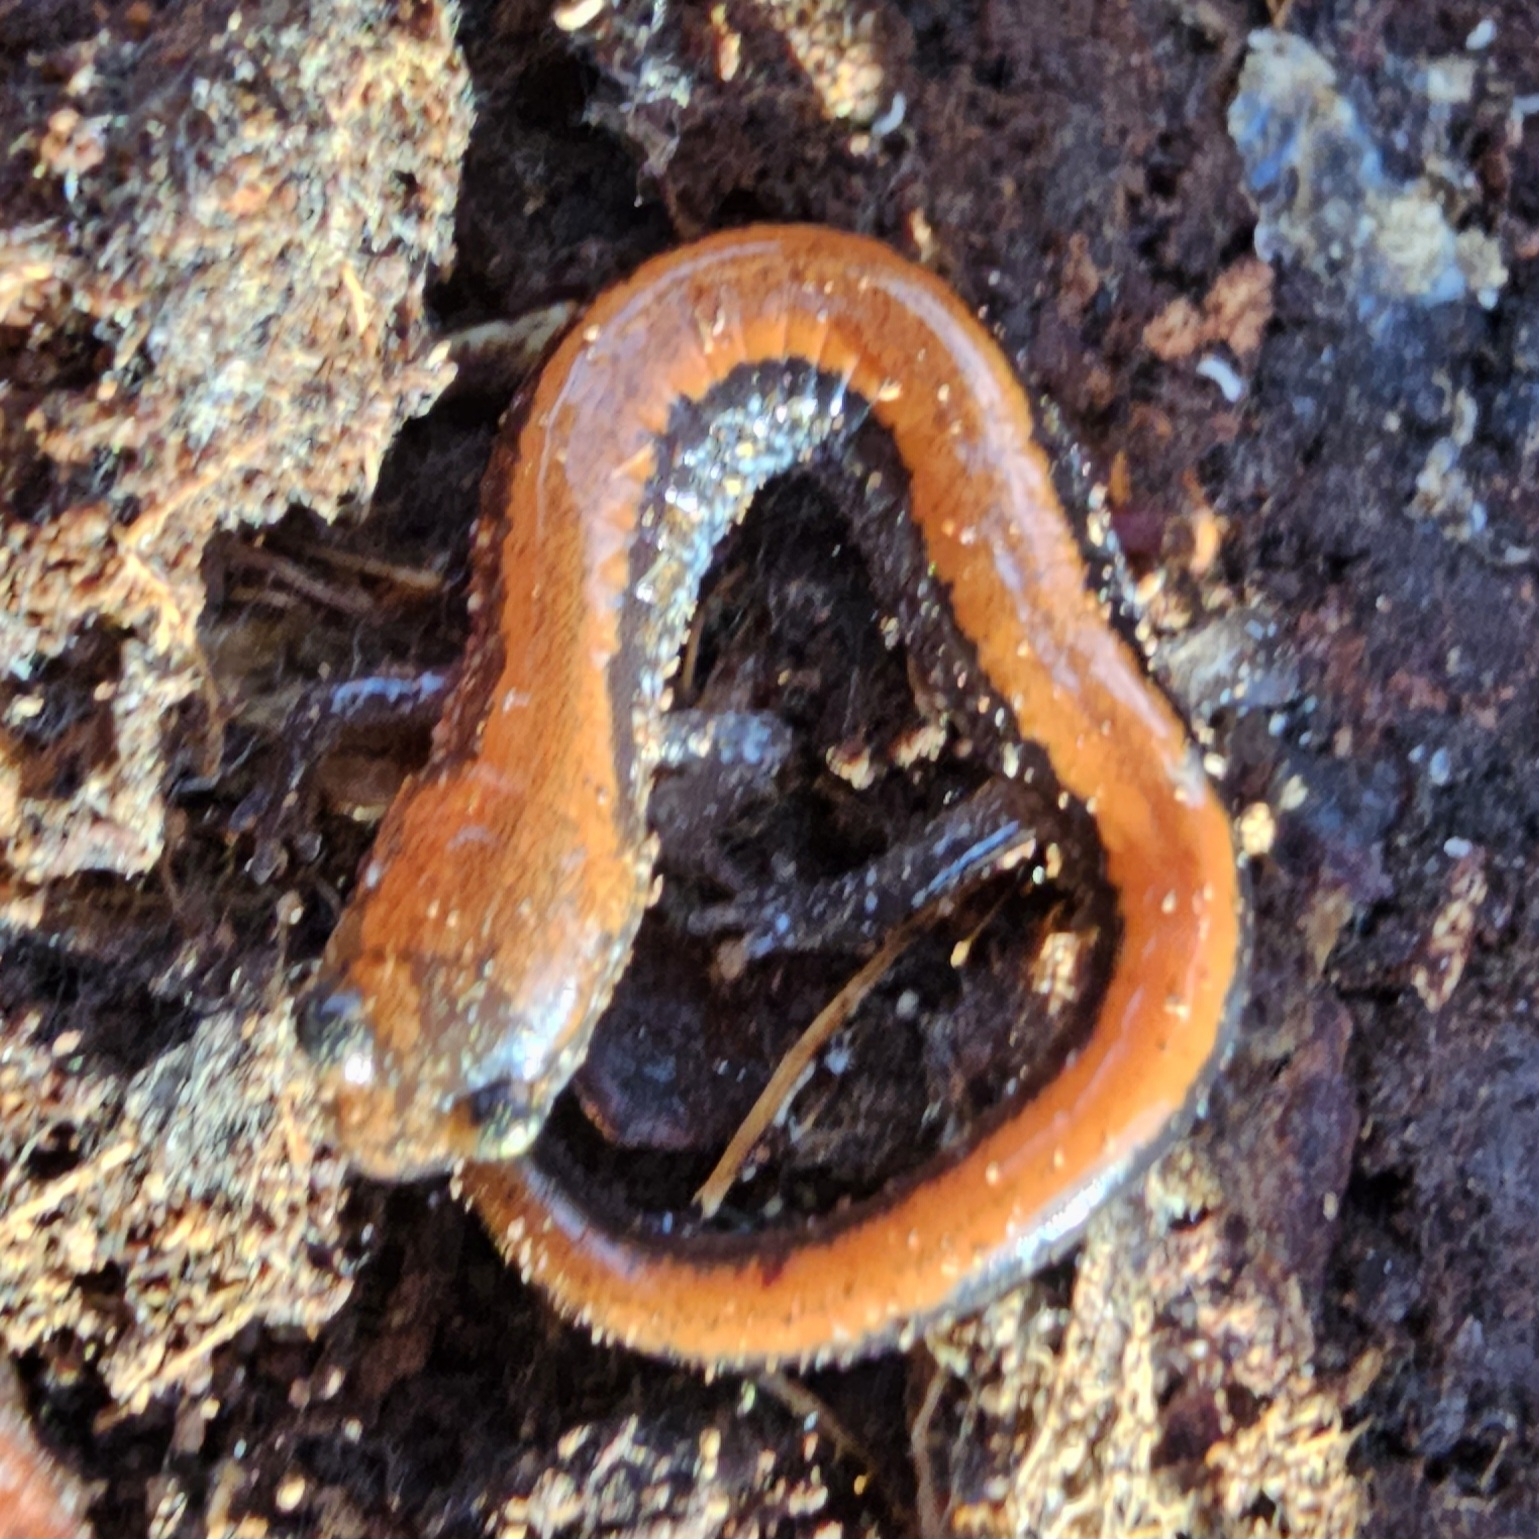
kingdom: Animalia
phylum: Chordata
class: Amphibia
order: Caudata
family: Plethodontidae
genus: Plethodon
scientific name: Plethodon cinereus
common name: Redback salamander
